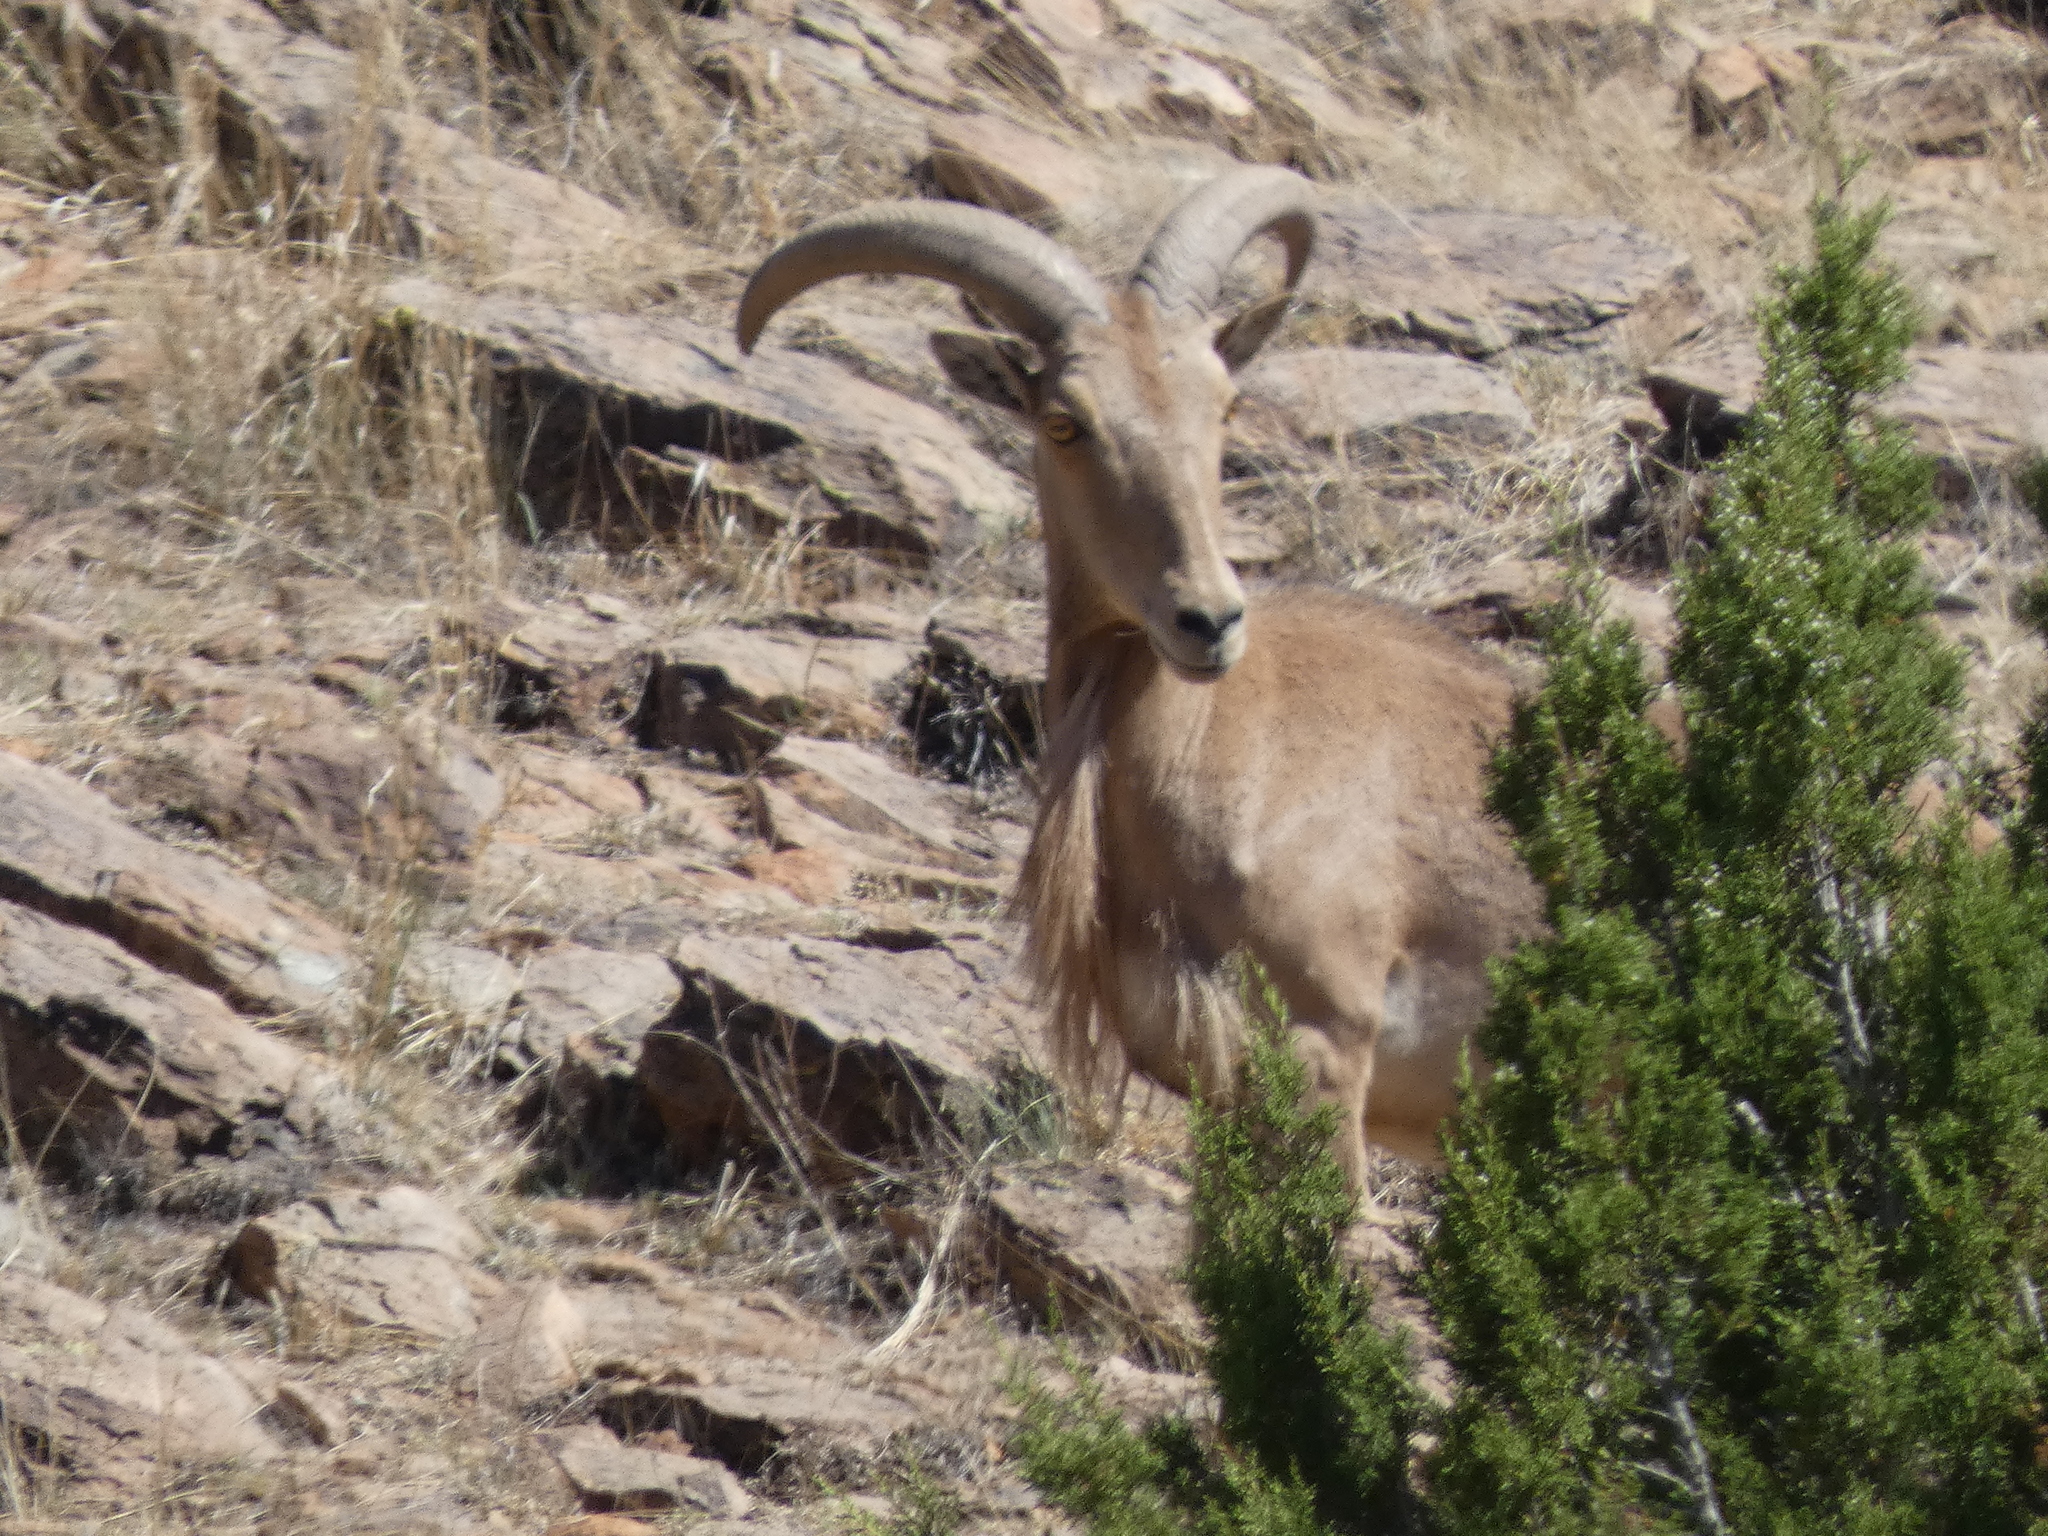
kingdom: Animalia
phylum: Chordata
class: Mammalia
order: Artiodactyla
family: Bovidae
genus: Ammotragus
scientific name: Ammotragus lervia
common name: Barbary sheep
